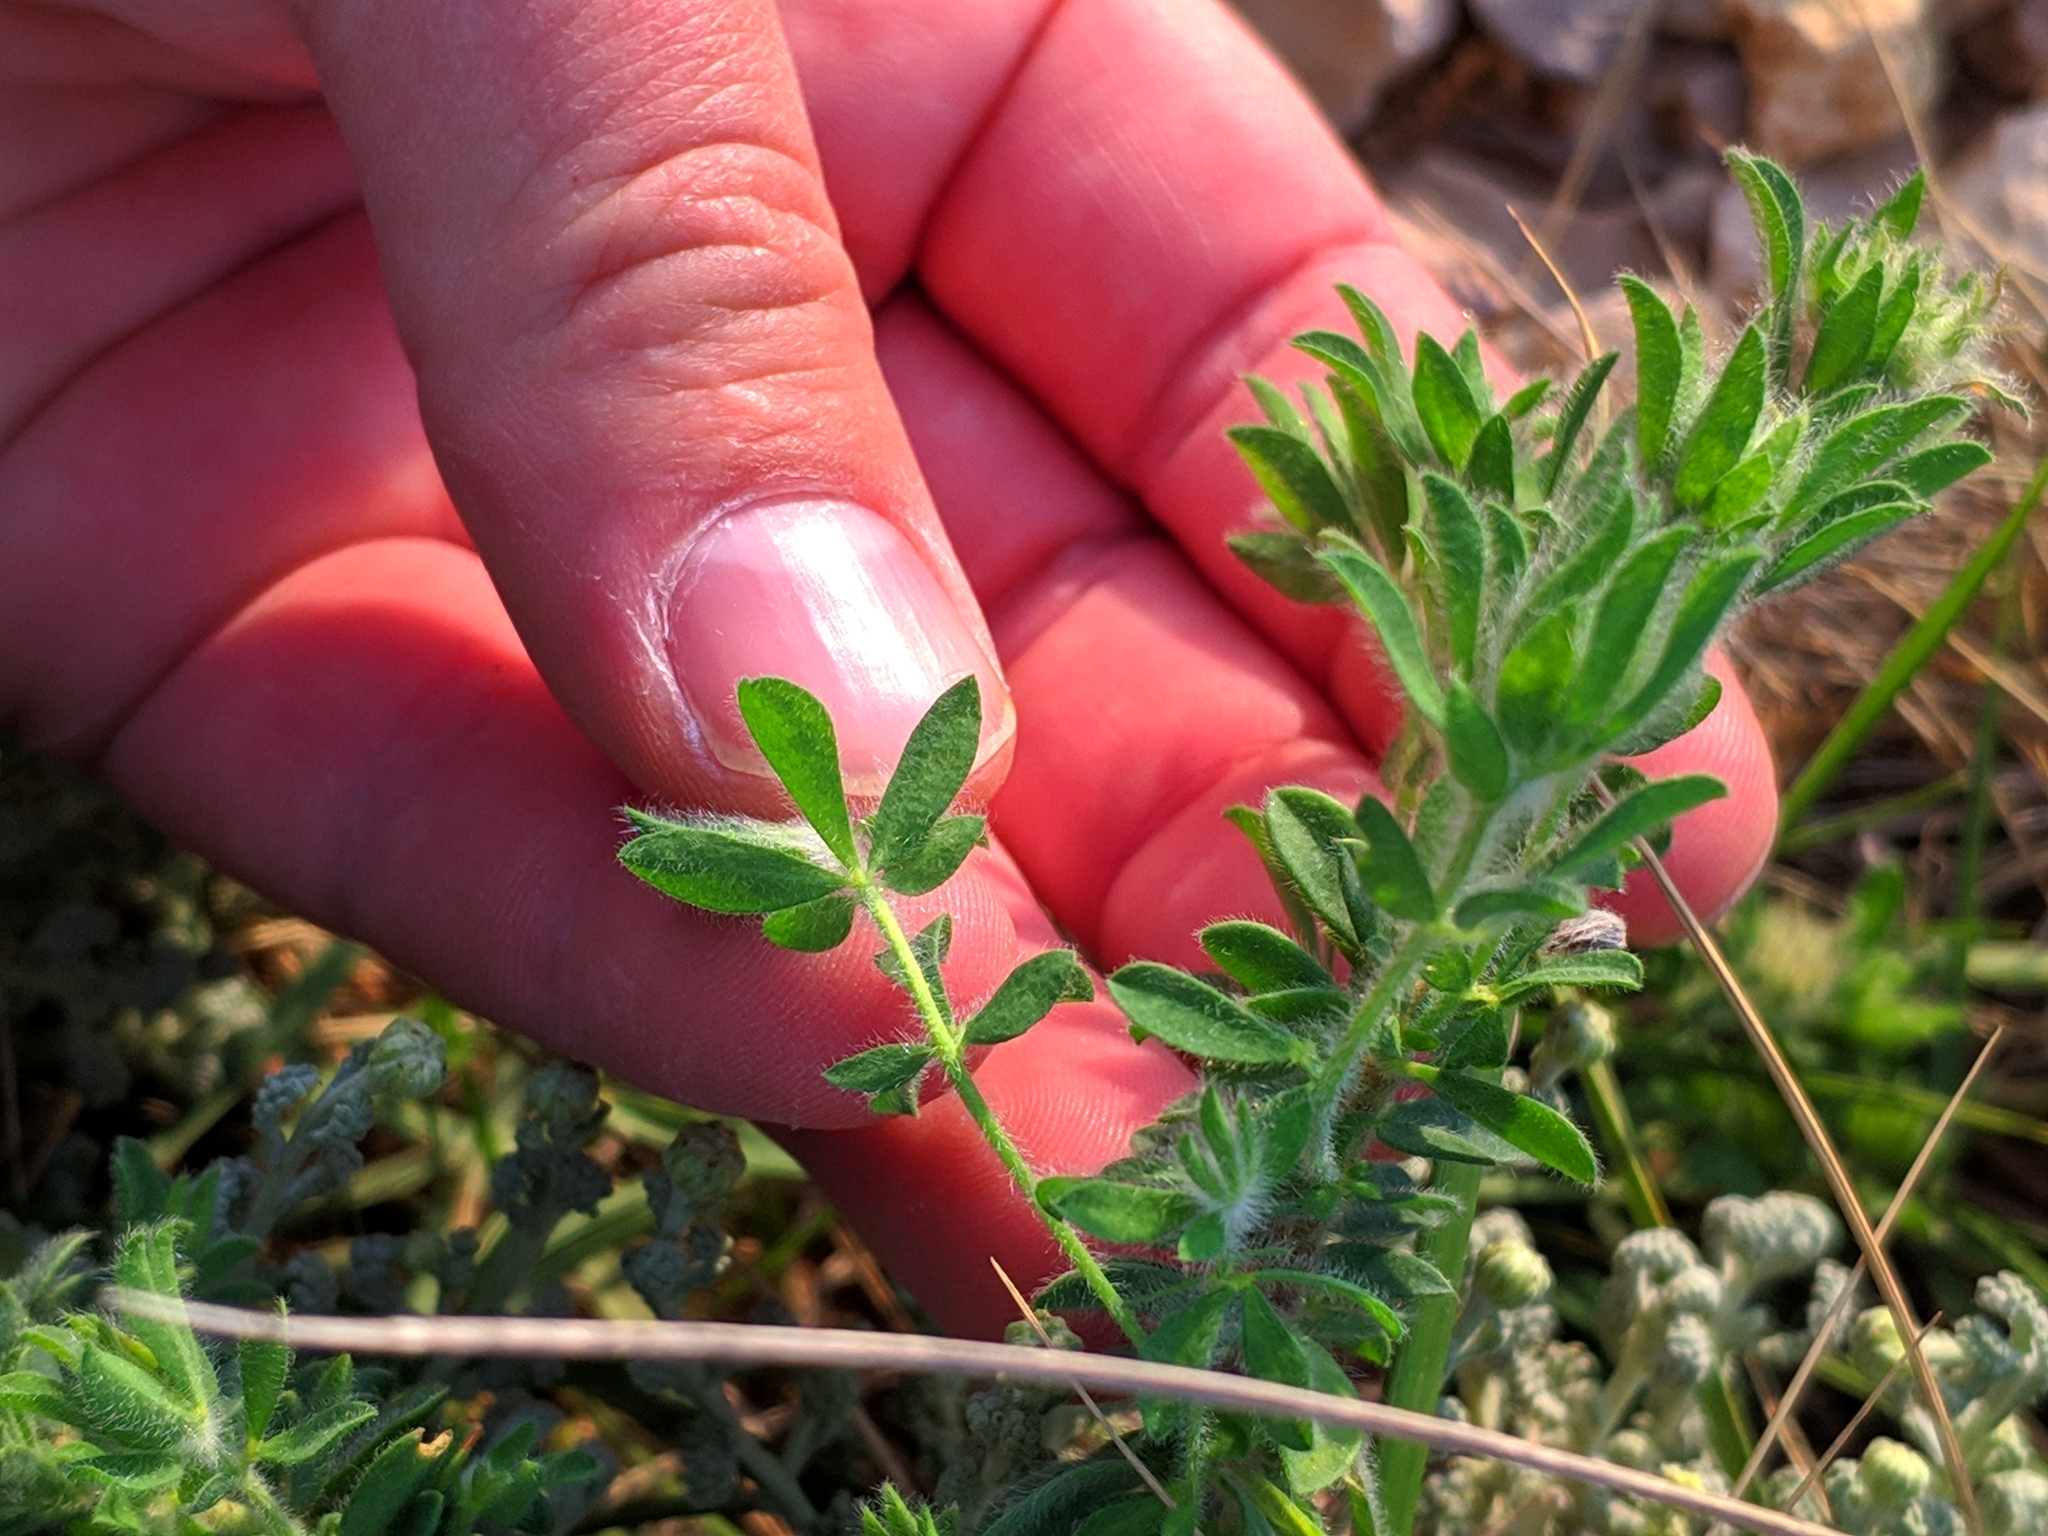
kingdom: Plantae
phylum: Tracheophyta
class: Magnoliopsida
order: Fabales
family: Fabaceae
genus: Lotus
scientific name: Lotus hirsutus
